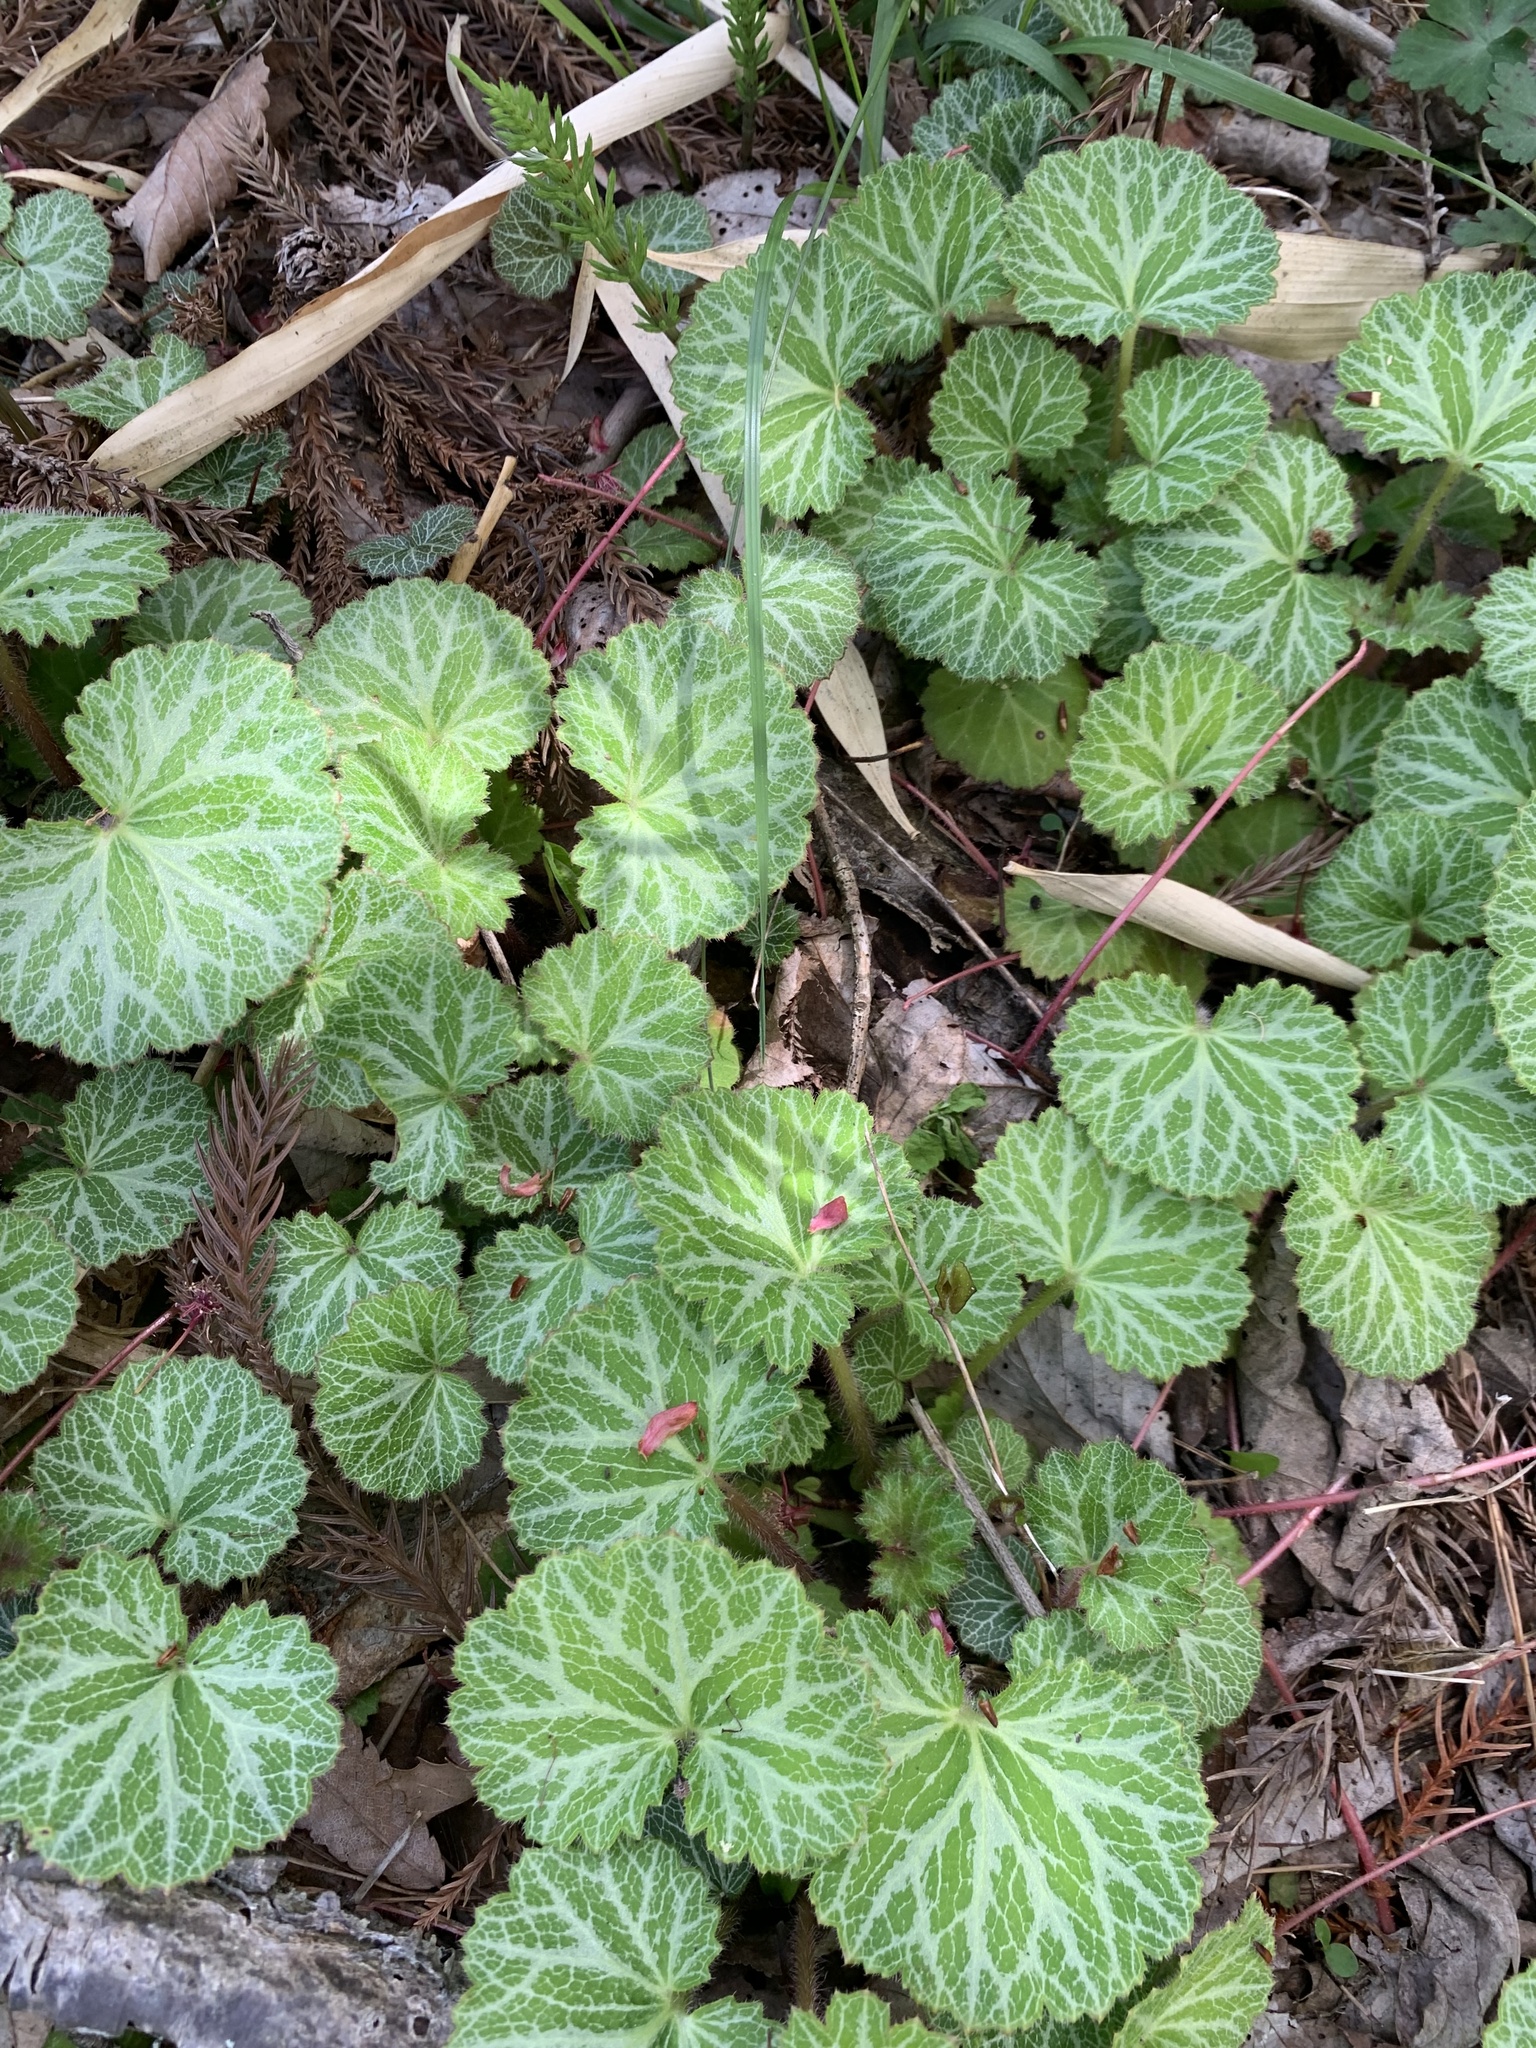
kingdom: Plantae
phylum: Tracheophyta
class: Magnoliopsida
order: Saxifragales
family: Saxifragaceae
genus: Saxifraga
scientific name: Saxifraga stolonifera
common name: Creeping saxifrage
